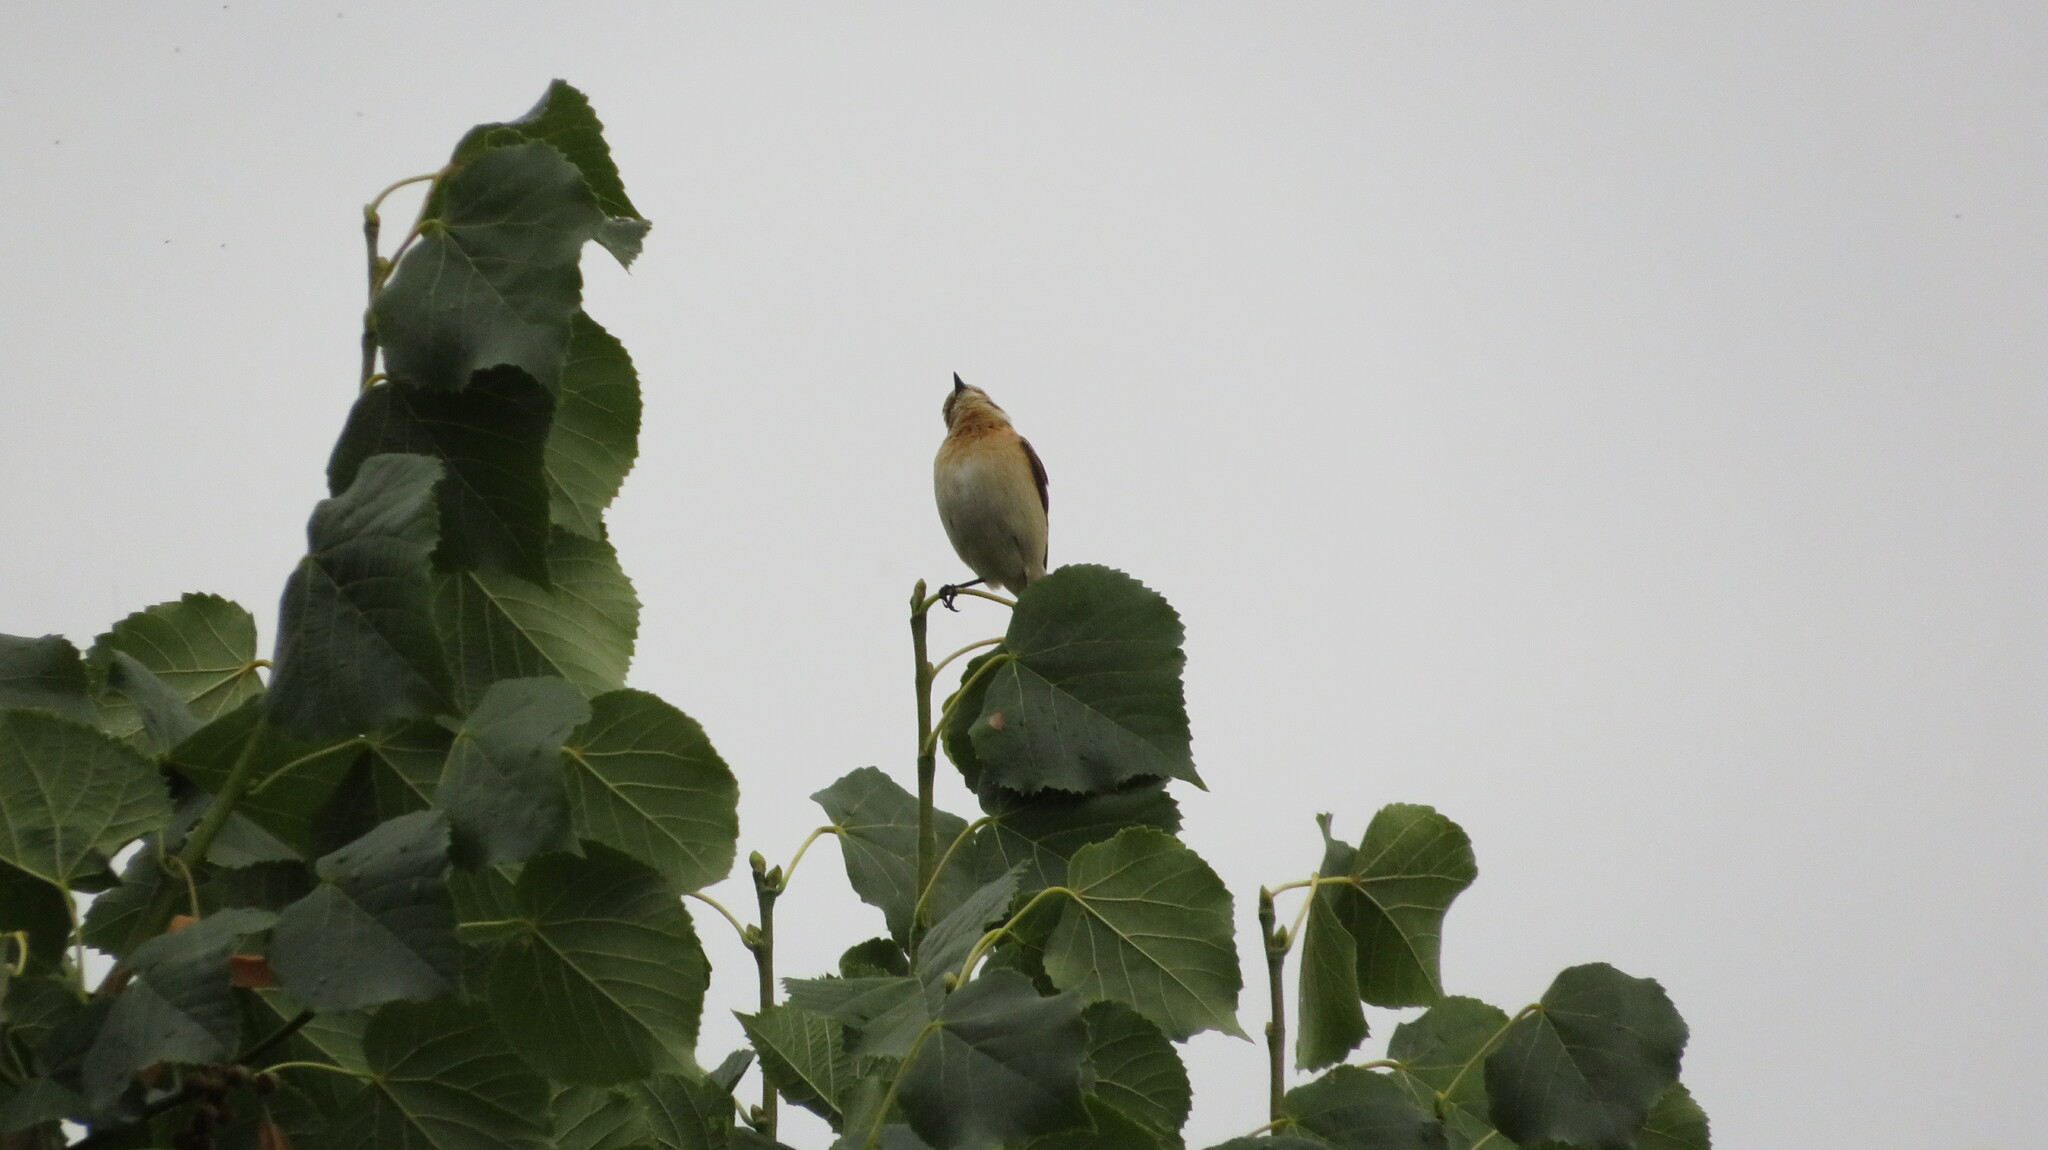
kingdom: Animalia
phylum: Chordata
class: Aves
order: Passeriformes
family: Muscicapidae
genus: Saxicola
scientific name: Saxicola rubetra
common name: Whinchat
